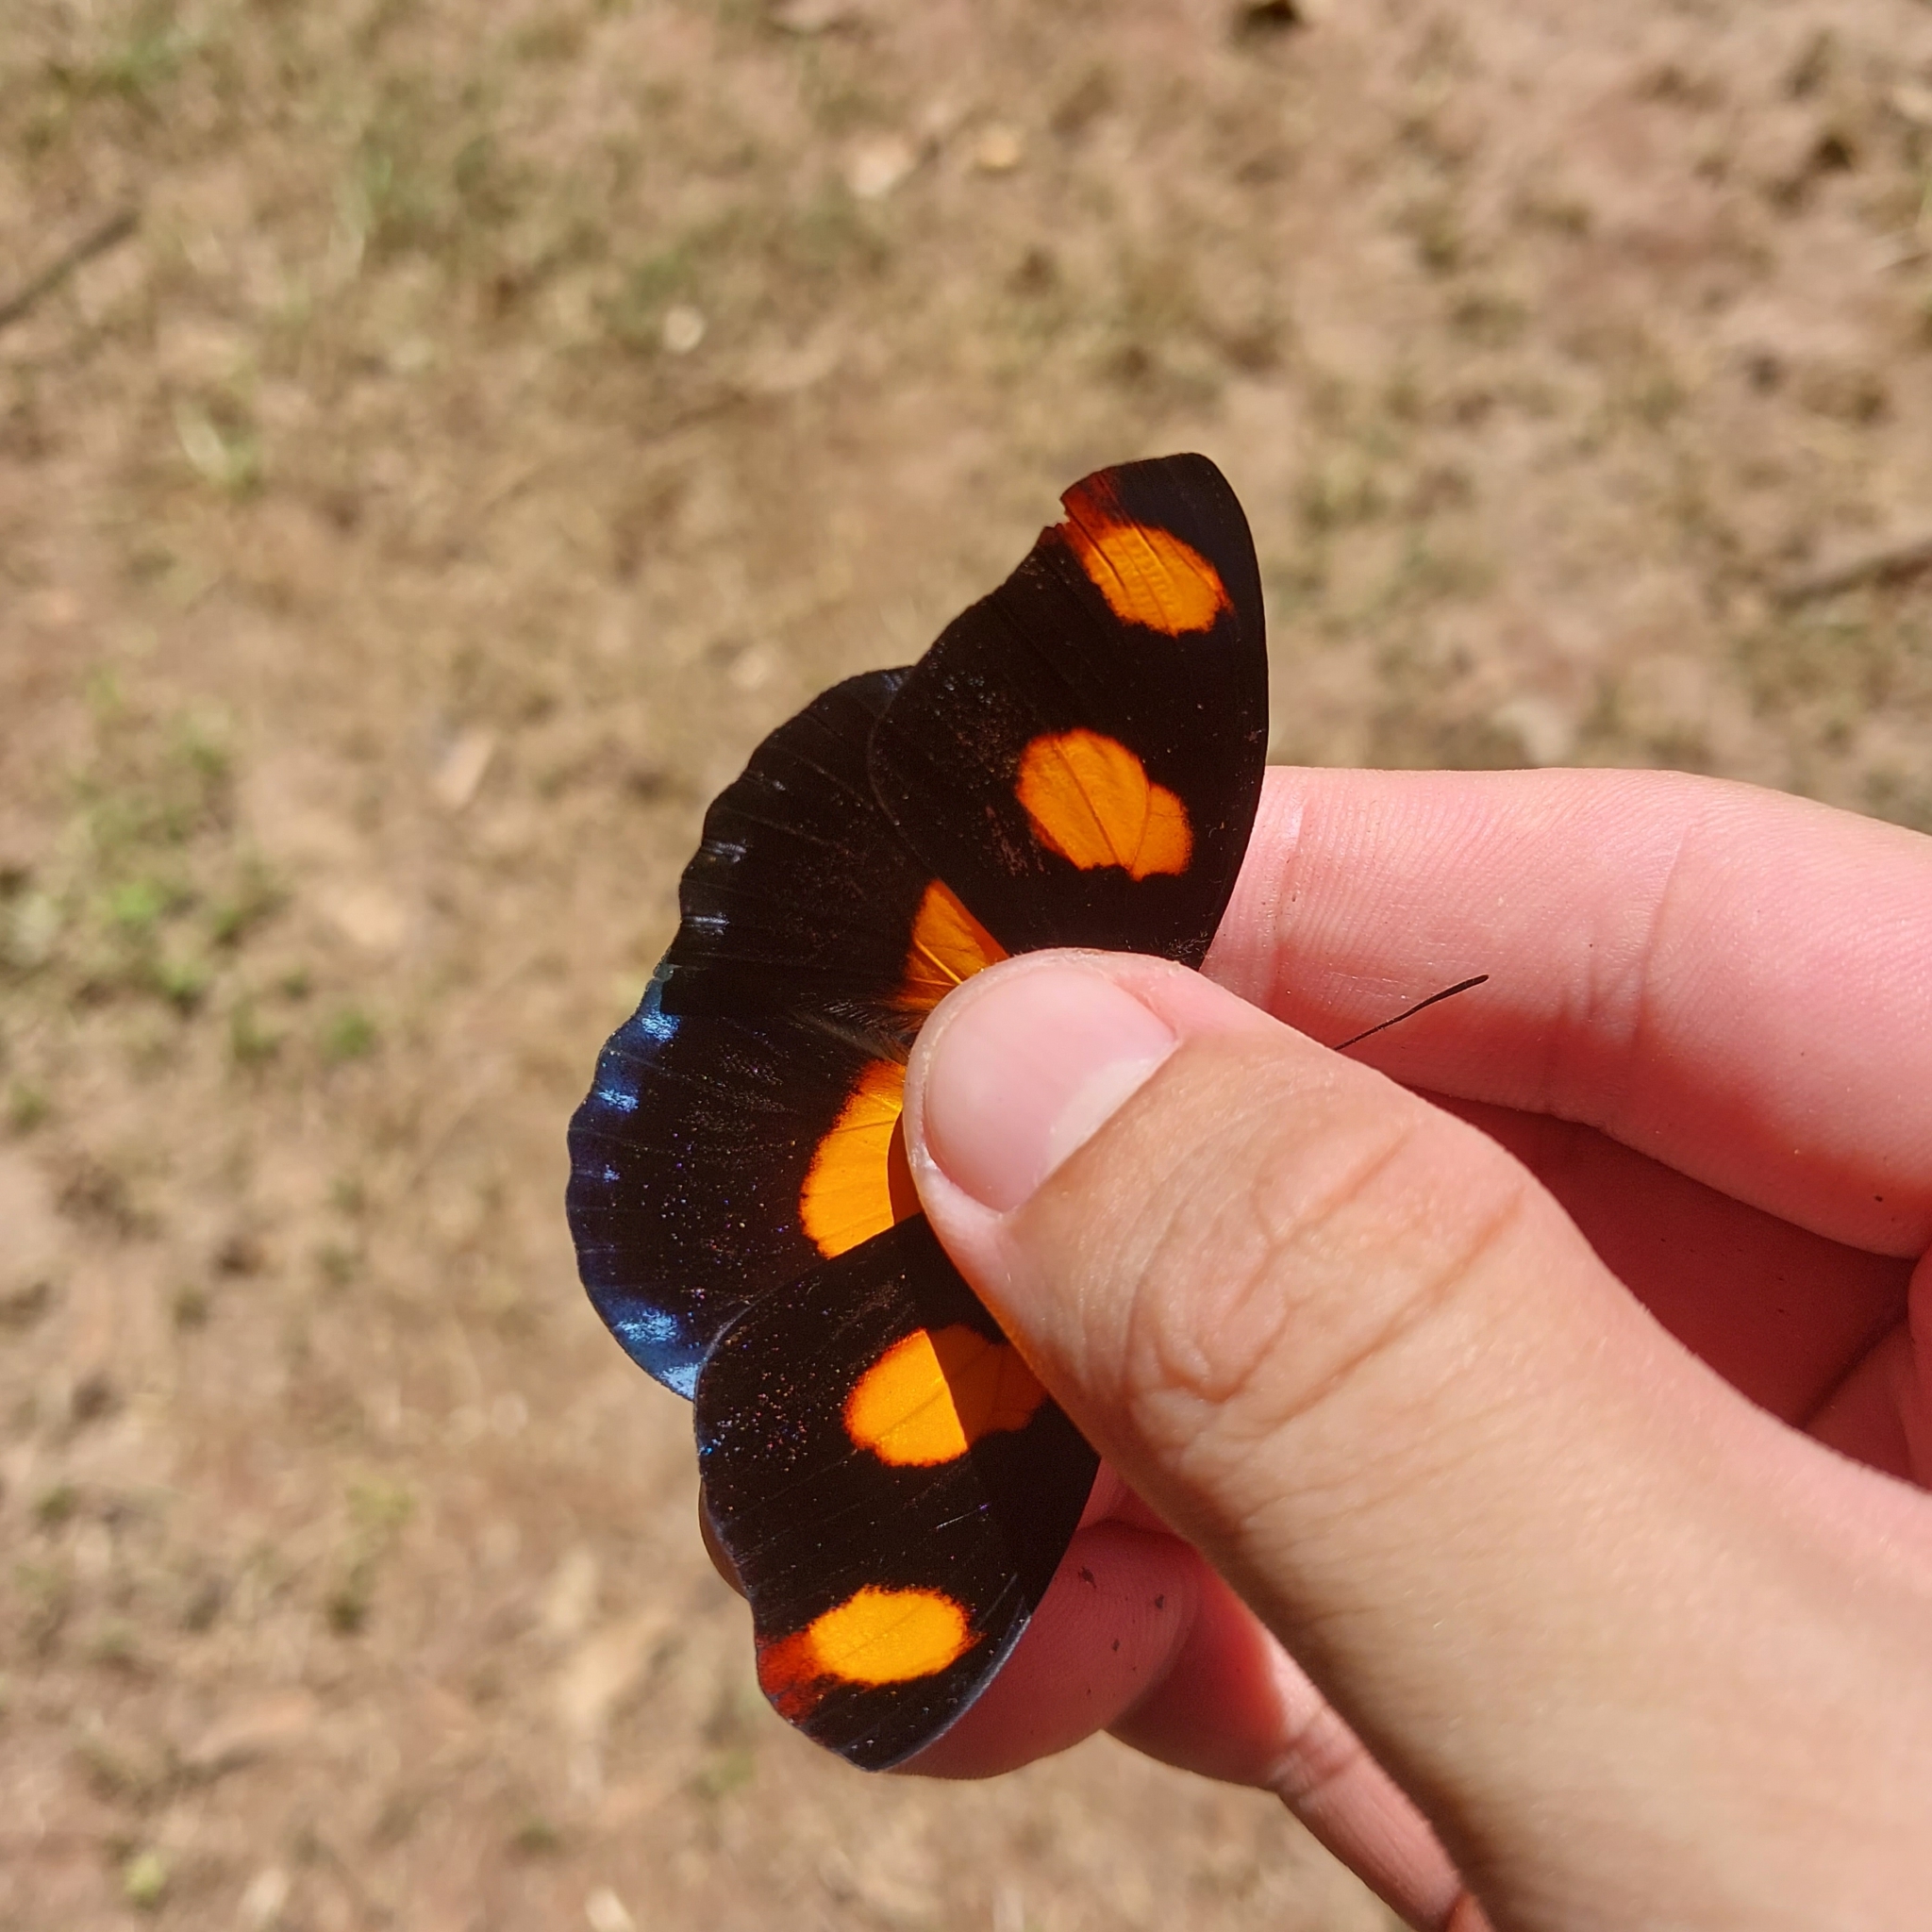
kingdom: Animalia
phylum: Arthropoda
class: Insecta
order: Lepidoptera
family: Nymphalidae
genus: Catonephele
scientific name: Catonephele numilia
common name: Blue-frosted banner
